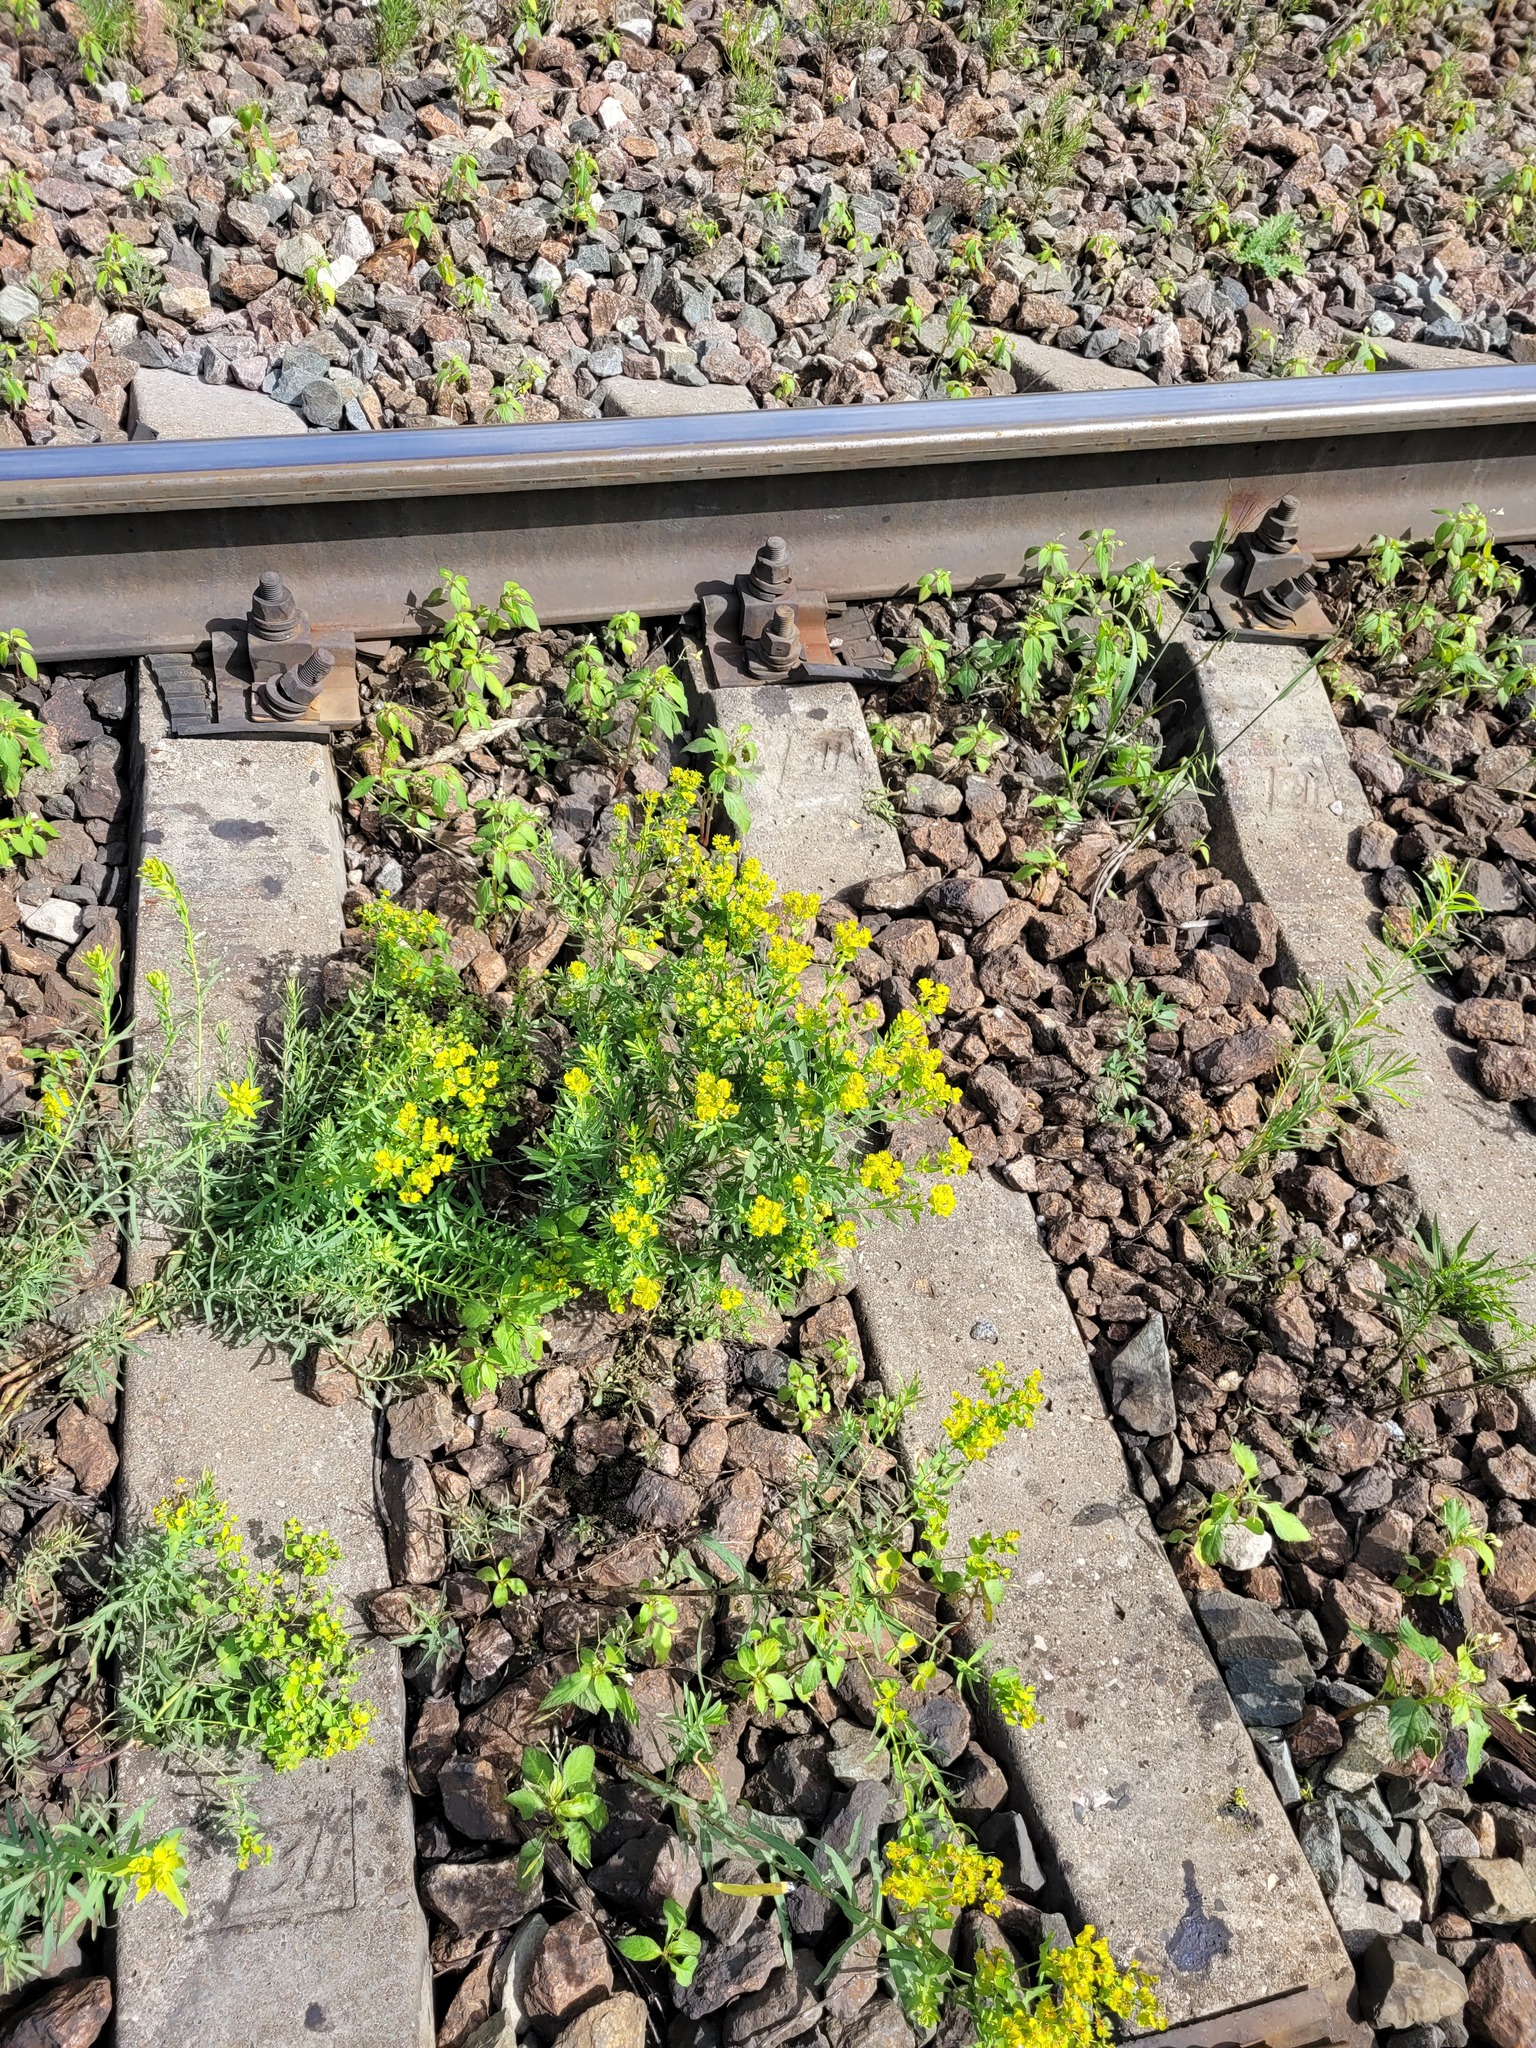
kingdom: Plantae
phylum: Tracheophyta
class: Magnoliopsida
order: Malpighiales
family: Euphorbiaceae
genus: Euphorbia
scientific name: Euphorbia virgata
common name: Leafy spurge
